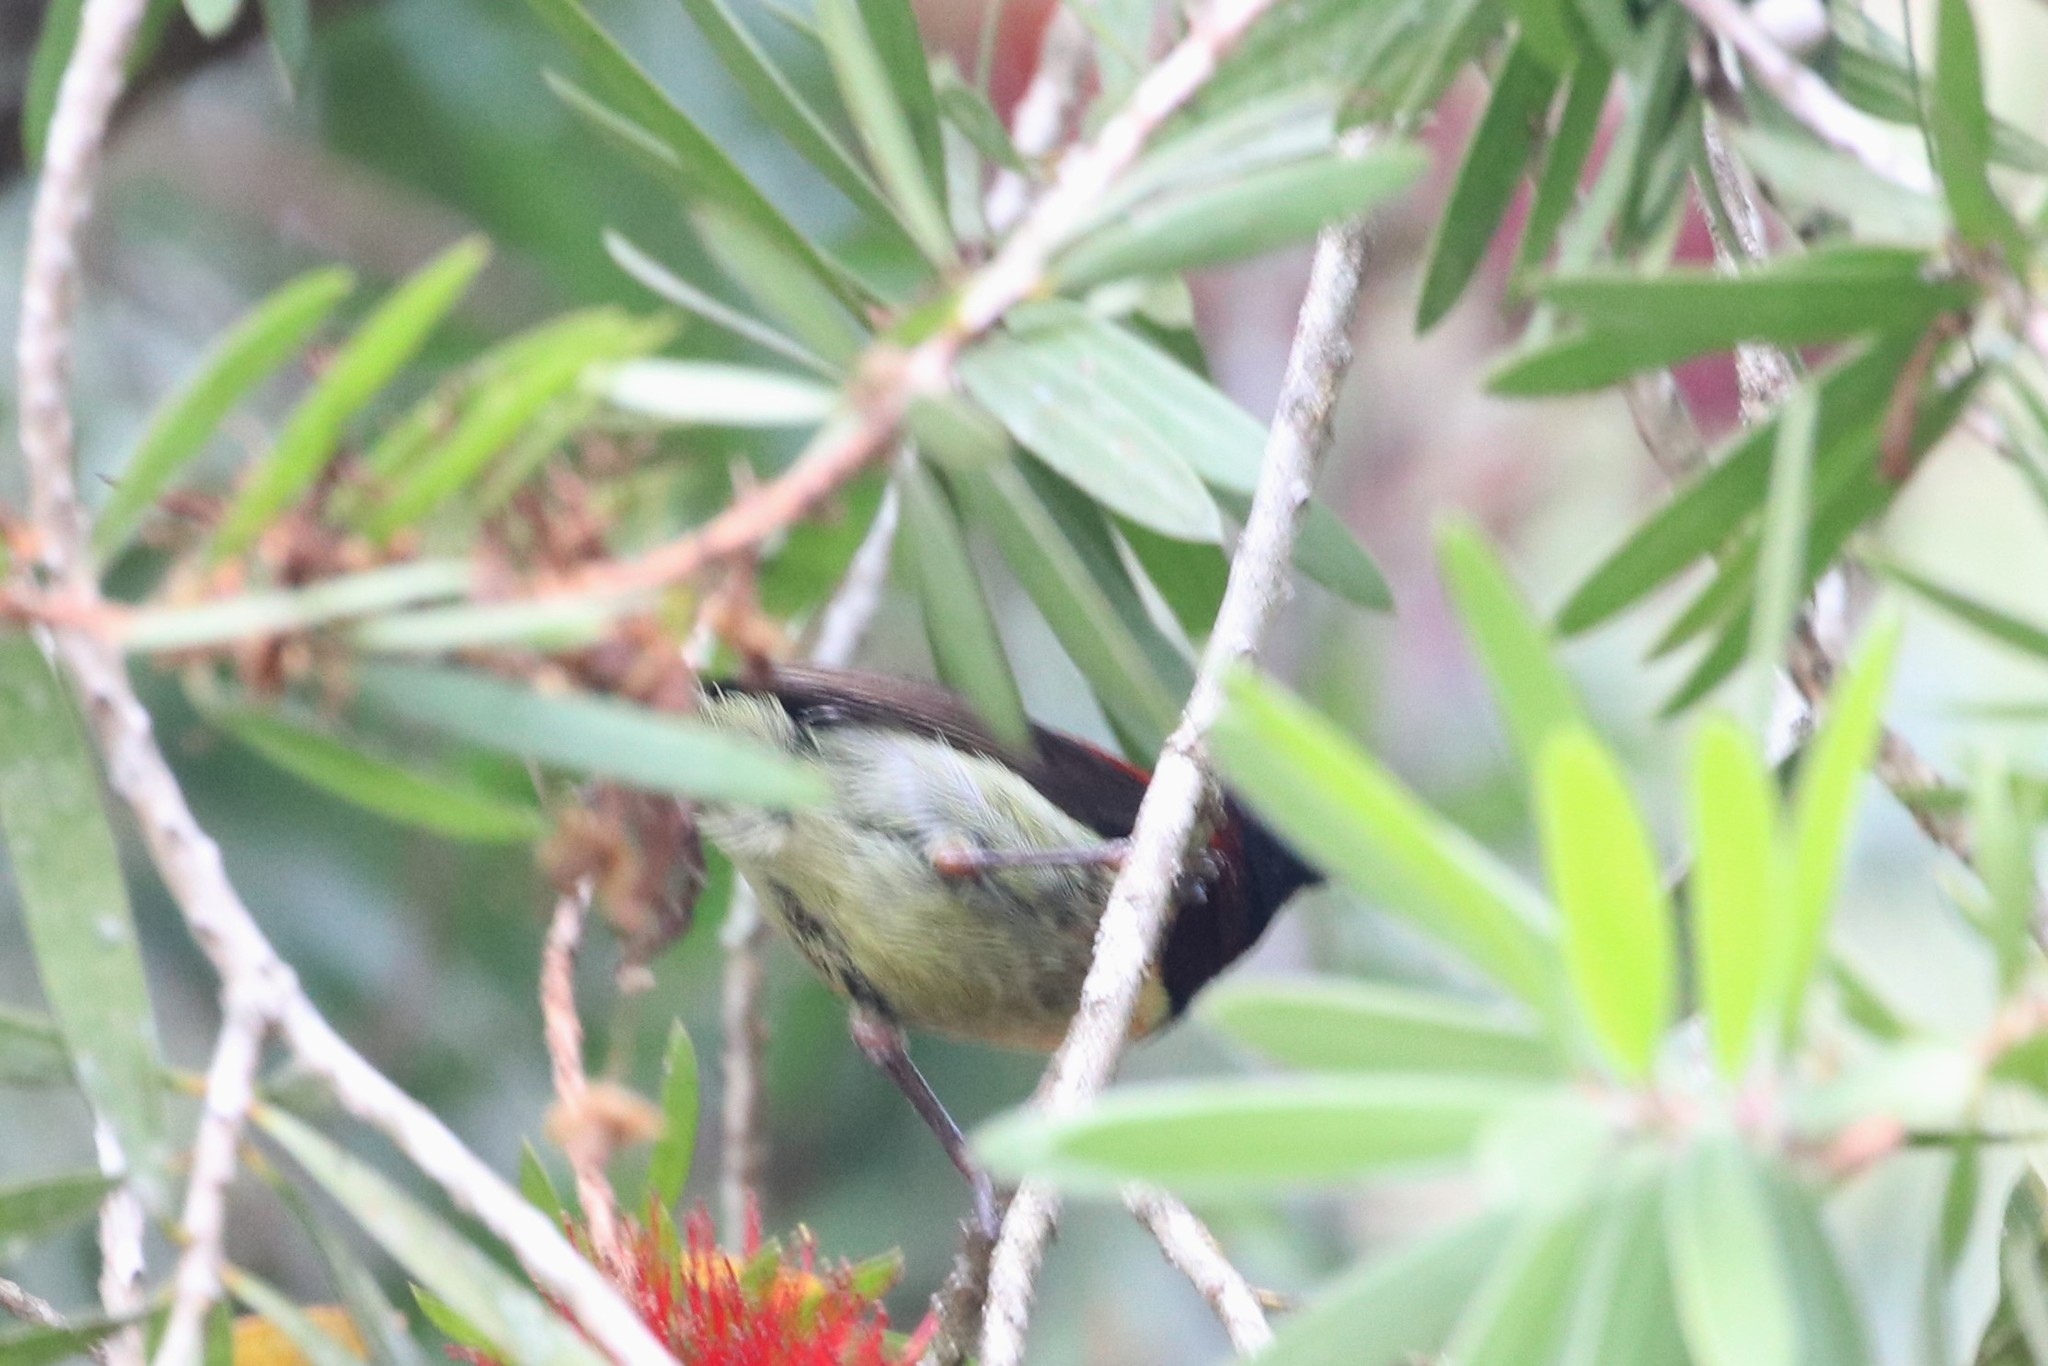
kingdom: Animalia
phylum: Chordata
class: Aves
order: Passeriformes
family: Nectariniidae
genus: Aethopyga
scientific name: Aethopyga saturata
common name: Black-throated sunbird
